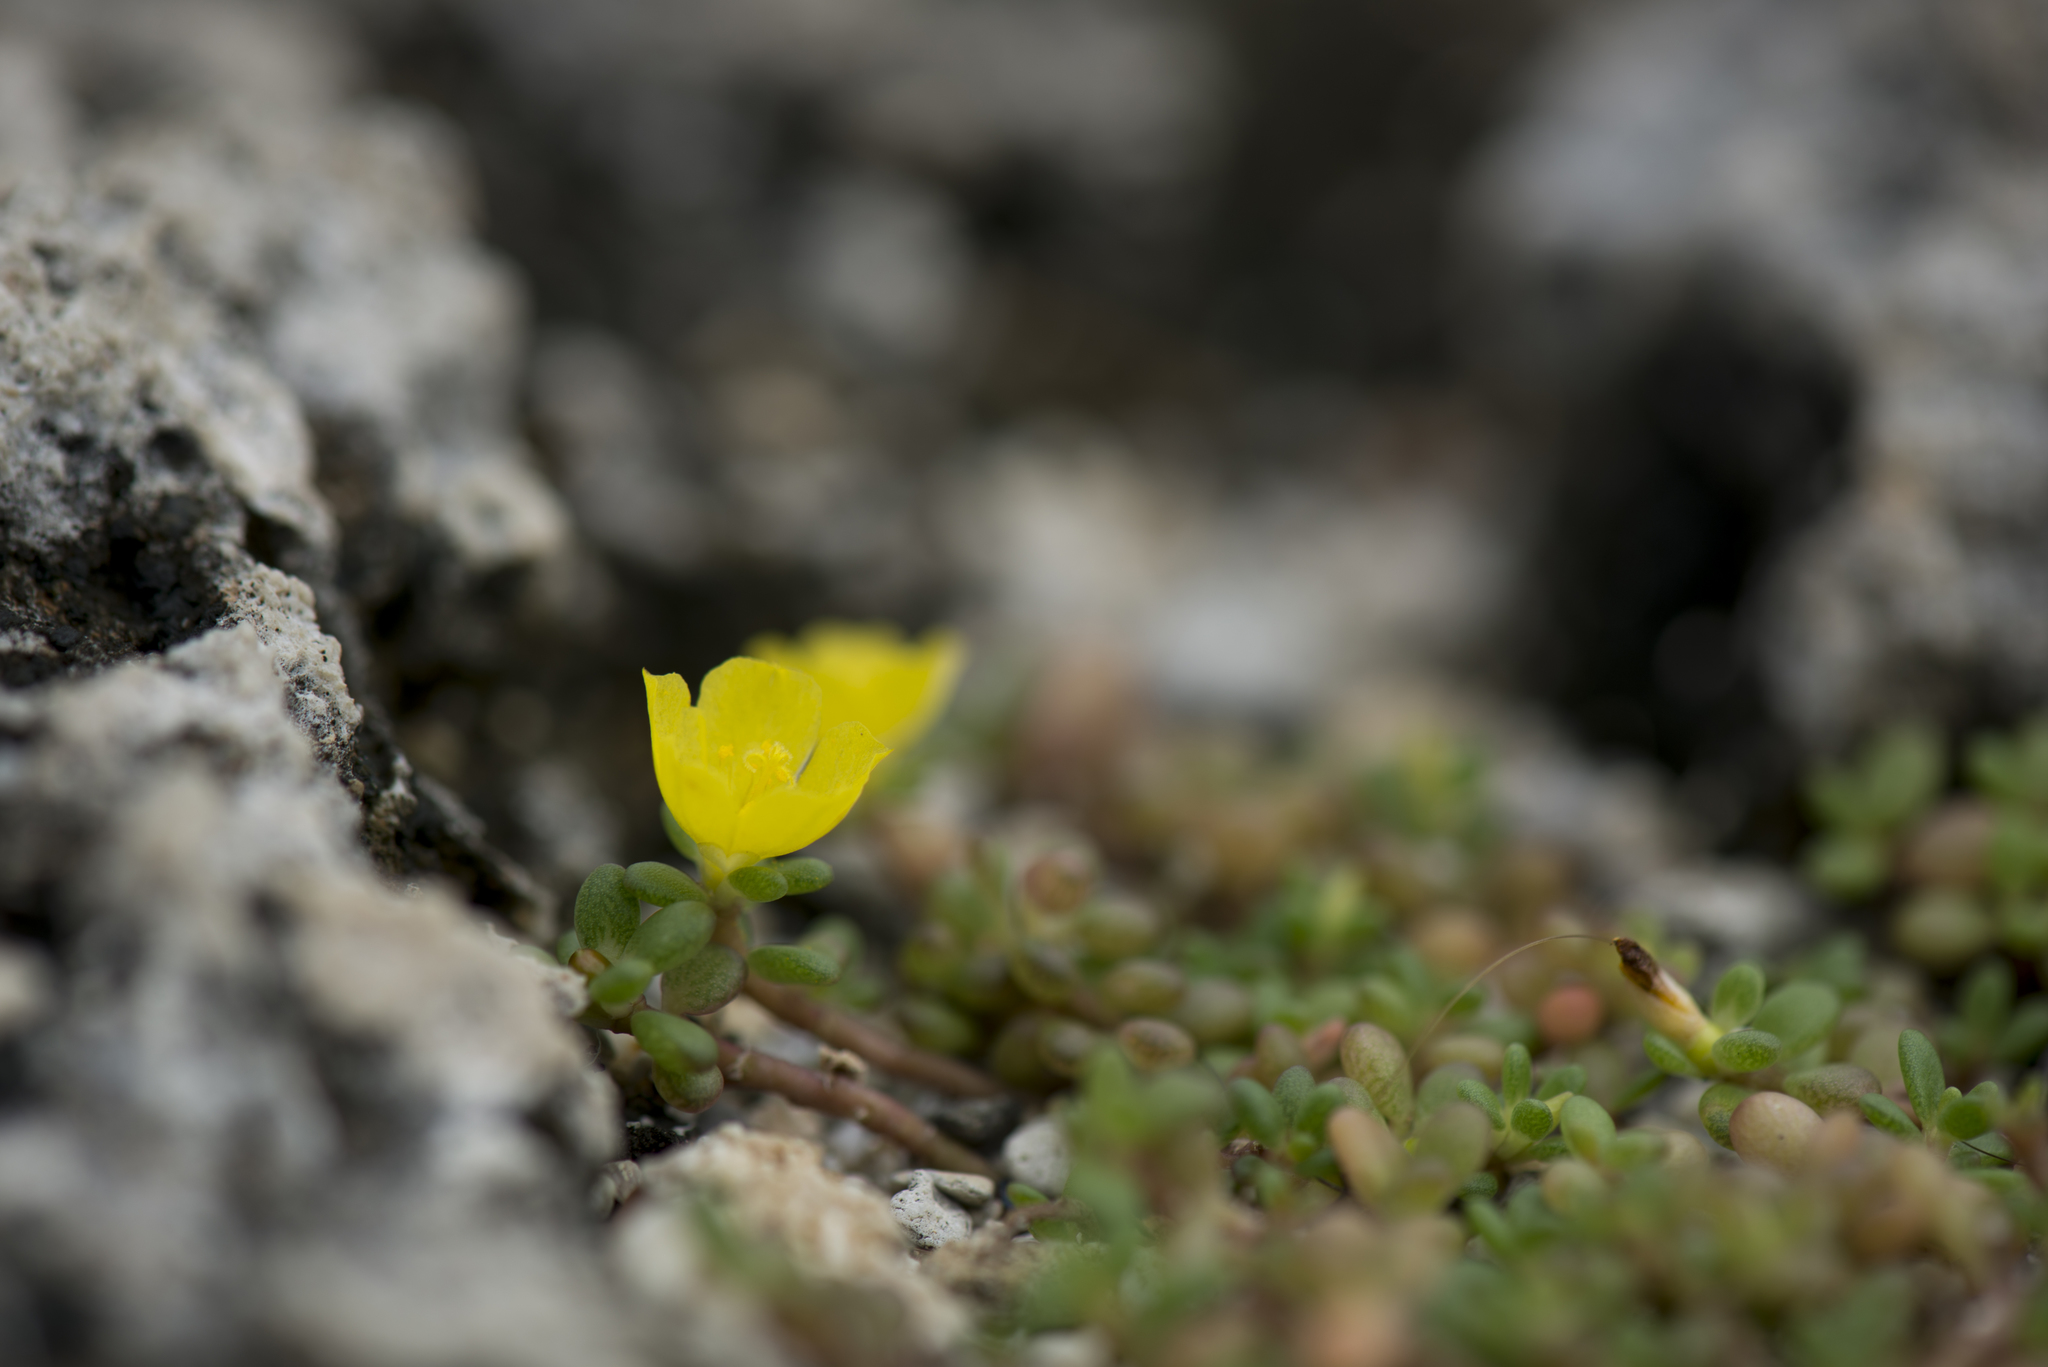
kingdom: Plantae
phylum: Tracheophyta
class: Magnoliopsida
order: Caryophyllales
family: Portulacaceae
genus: Portulaca
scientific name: Portulaca psammotropha
